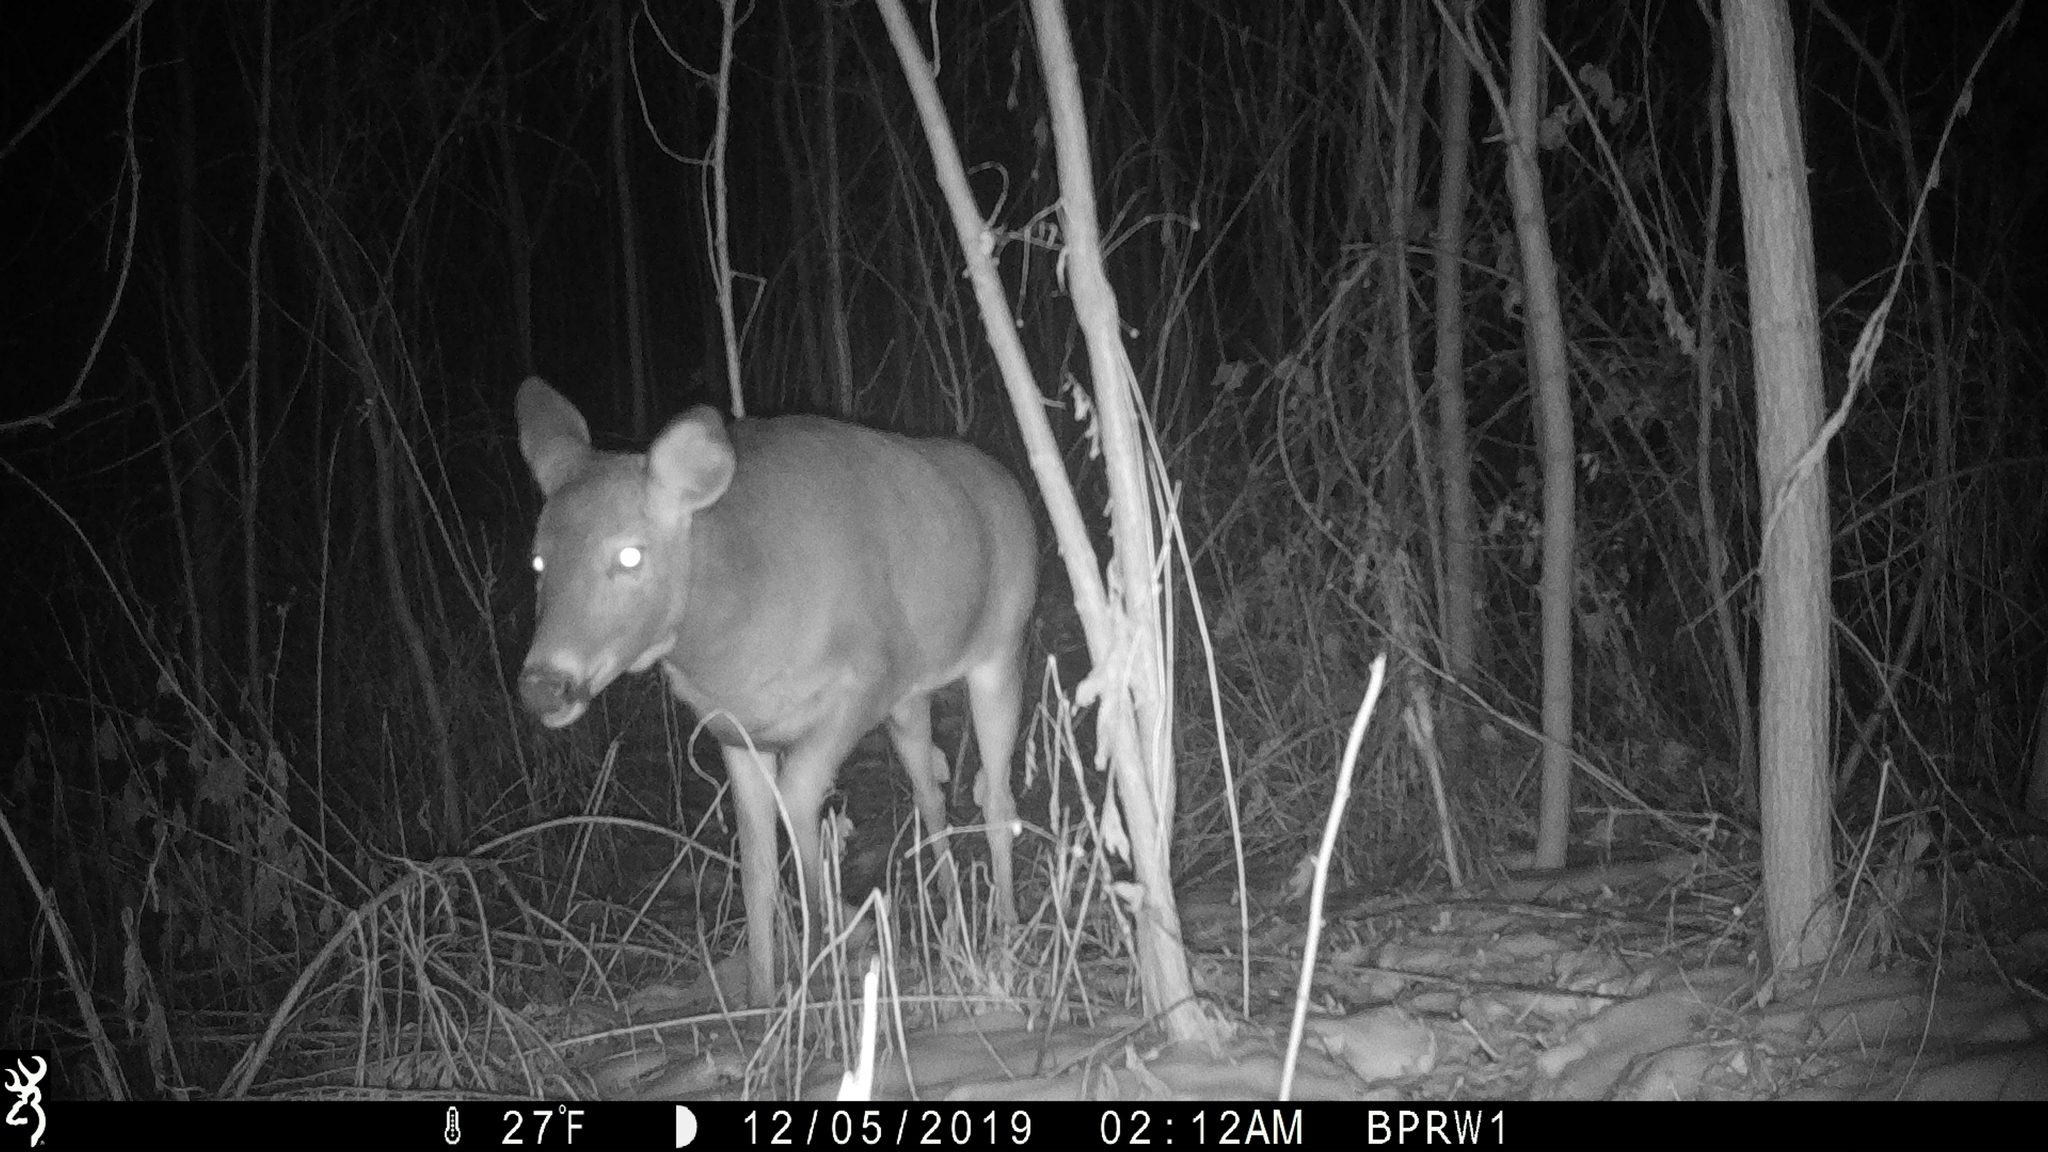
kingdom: Animalia
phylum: Chordata
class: Mammalia
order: Artiodactyla
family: Cervidae
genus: Odocoileus
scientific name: Odocoileus virginianus
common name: White-tailed deer
